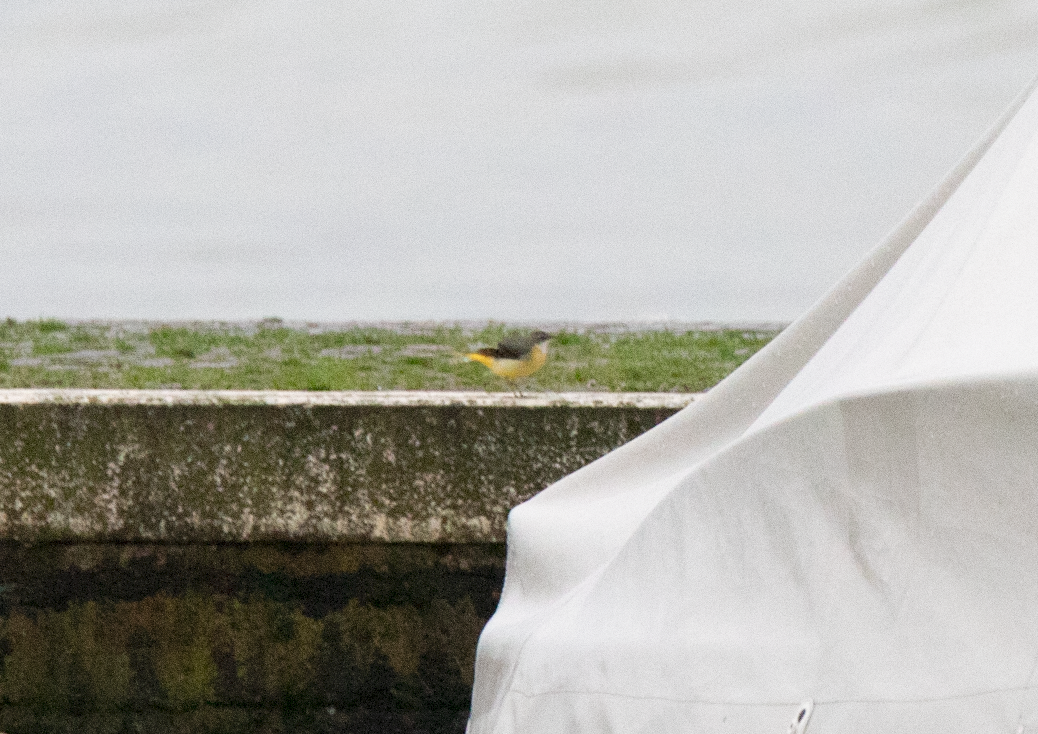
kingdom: Animalia
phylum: Chordata
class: Aves
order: Passeriformes
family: Motacillidae
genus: Motacilla
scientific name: Motacilla cinerea
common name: Grey wagtail
